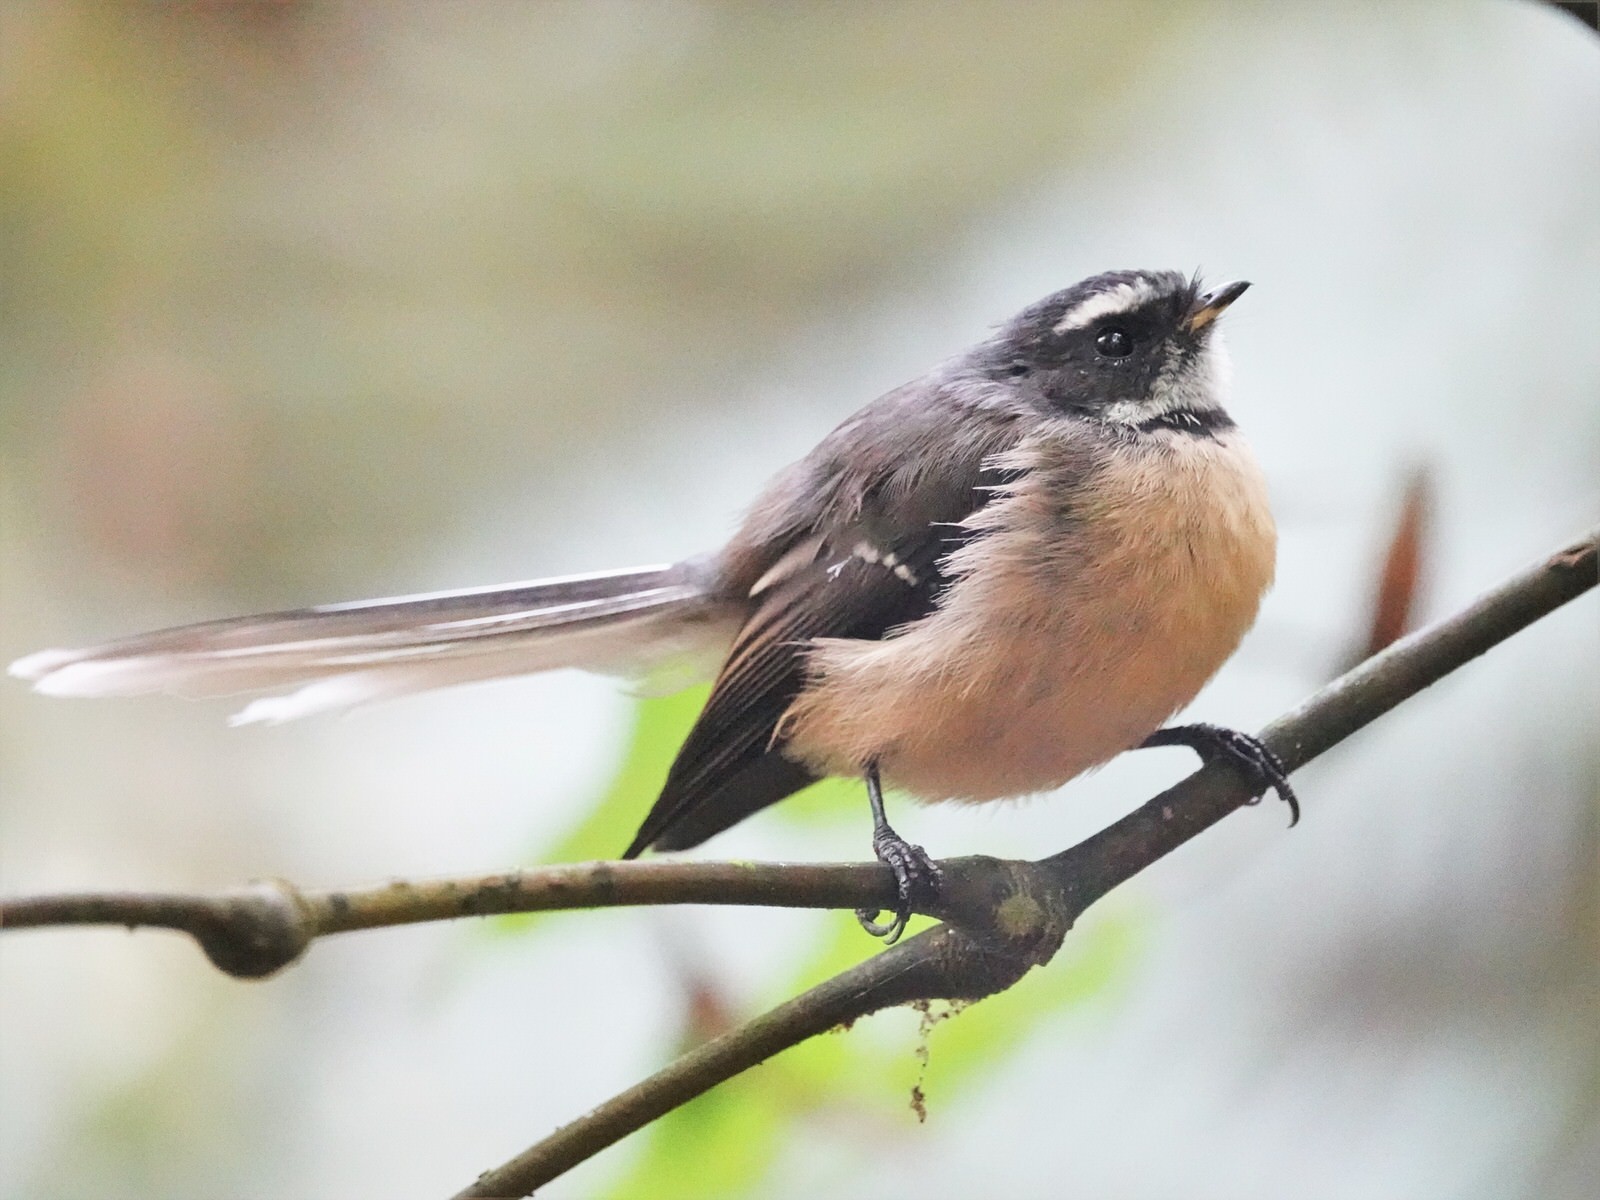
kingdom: Animalia
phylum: Chordata
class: Aves
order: Passeriformes
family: Rhipiduridae
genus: Rhipidura
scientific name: Rhipidura fuliginosa
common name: New zealand fantail
